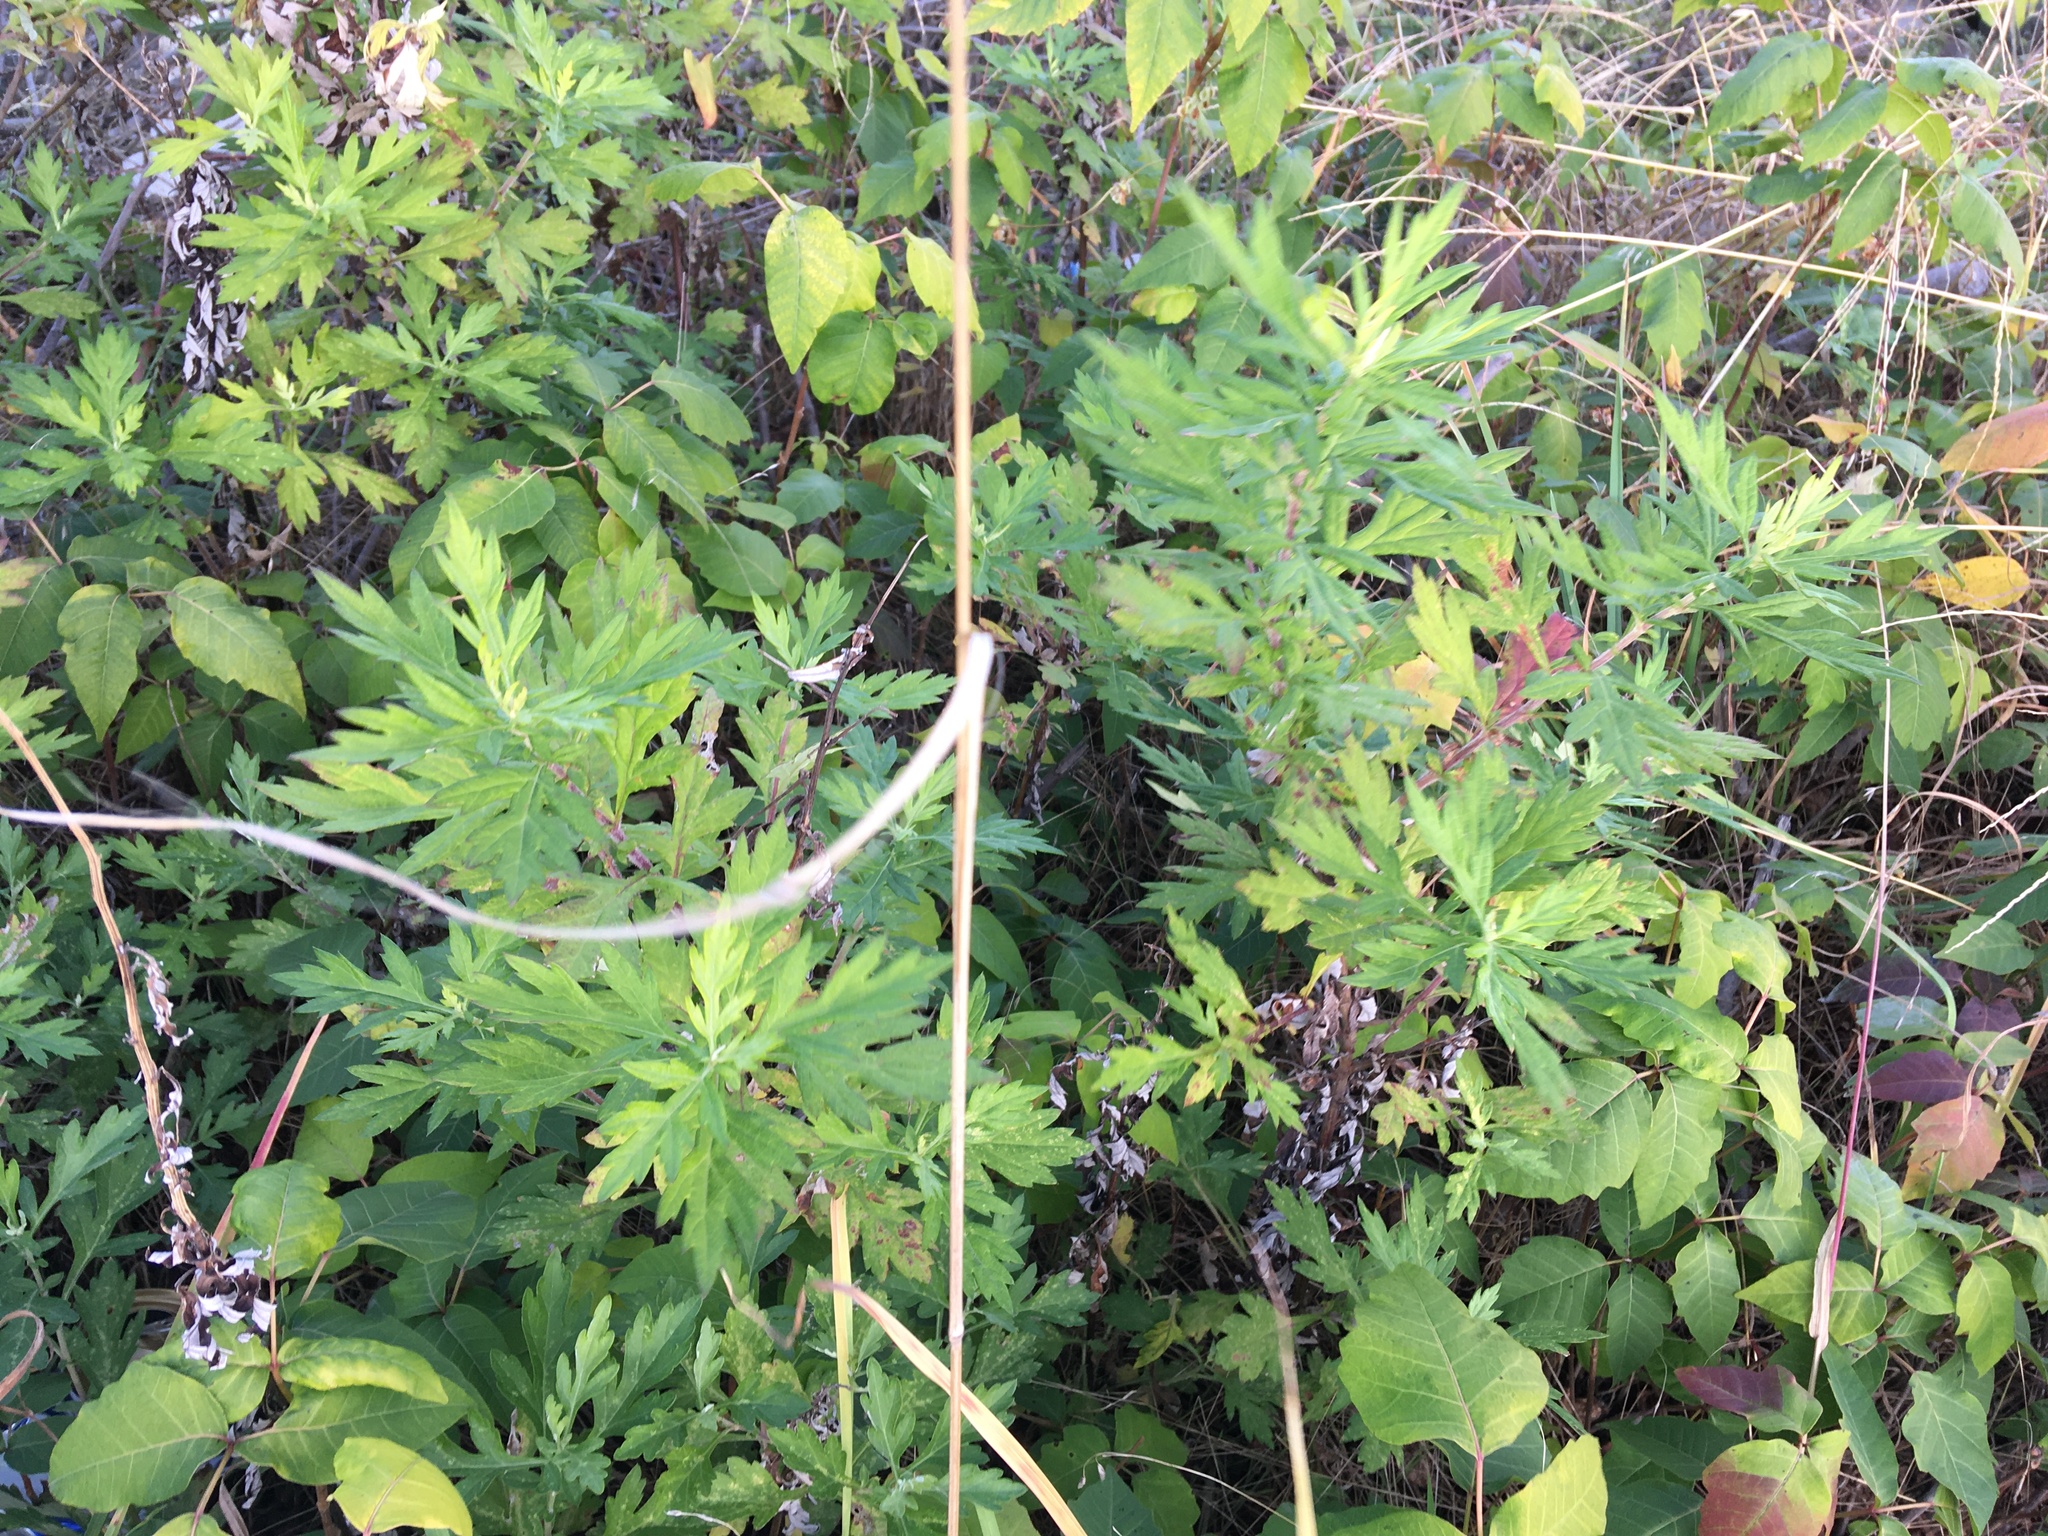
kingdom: Plantae
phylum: Tracheophyta
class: Magnoliopsida
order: Asterales
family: Asteraceae
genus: Artemisia
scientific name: Artemisia vulgaris
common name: Mugwort
